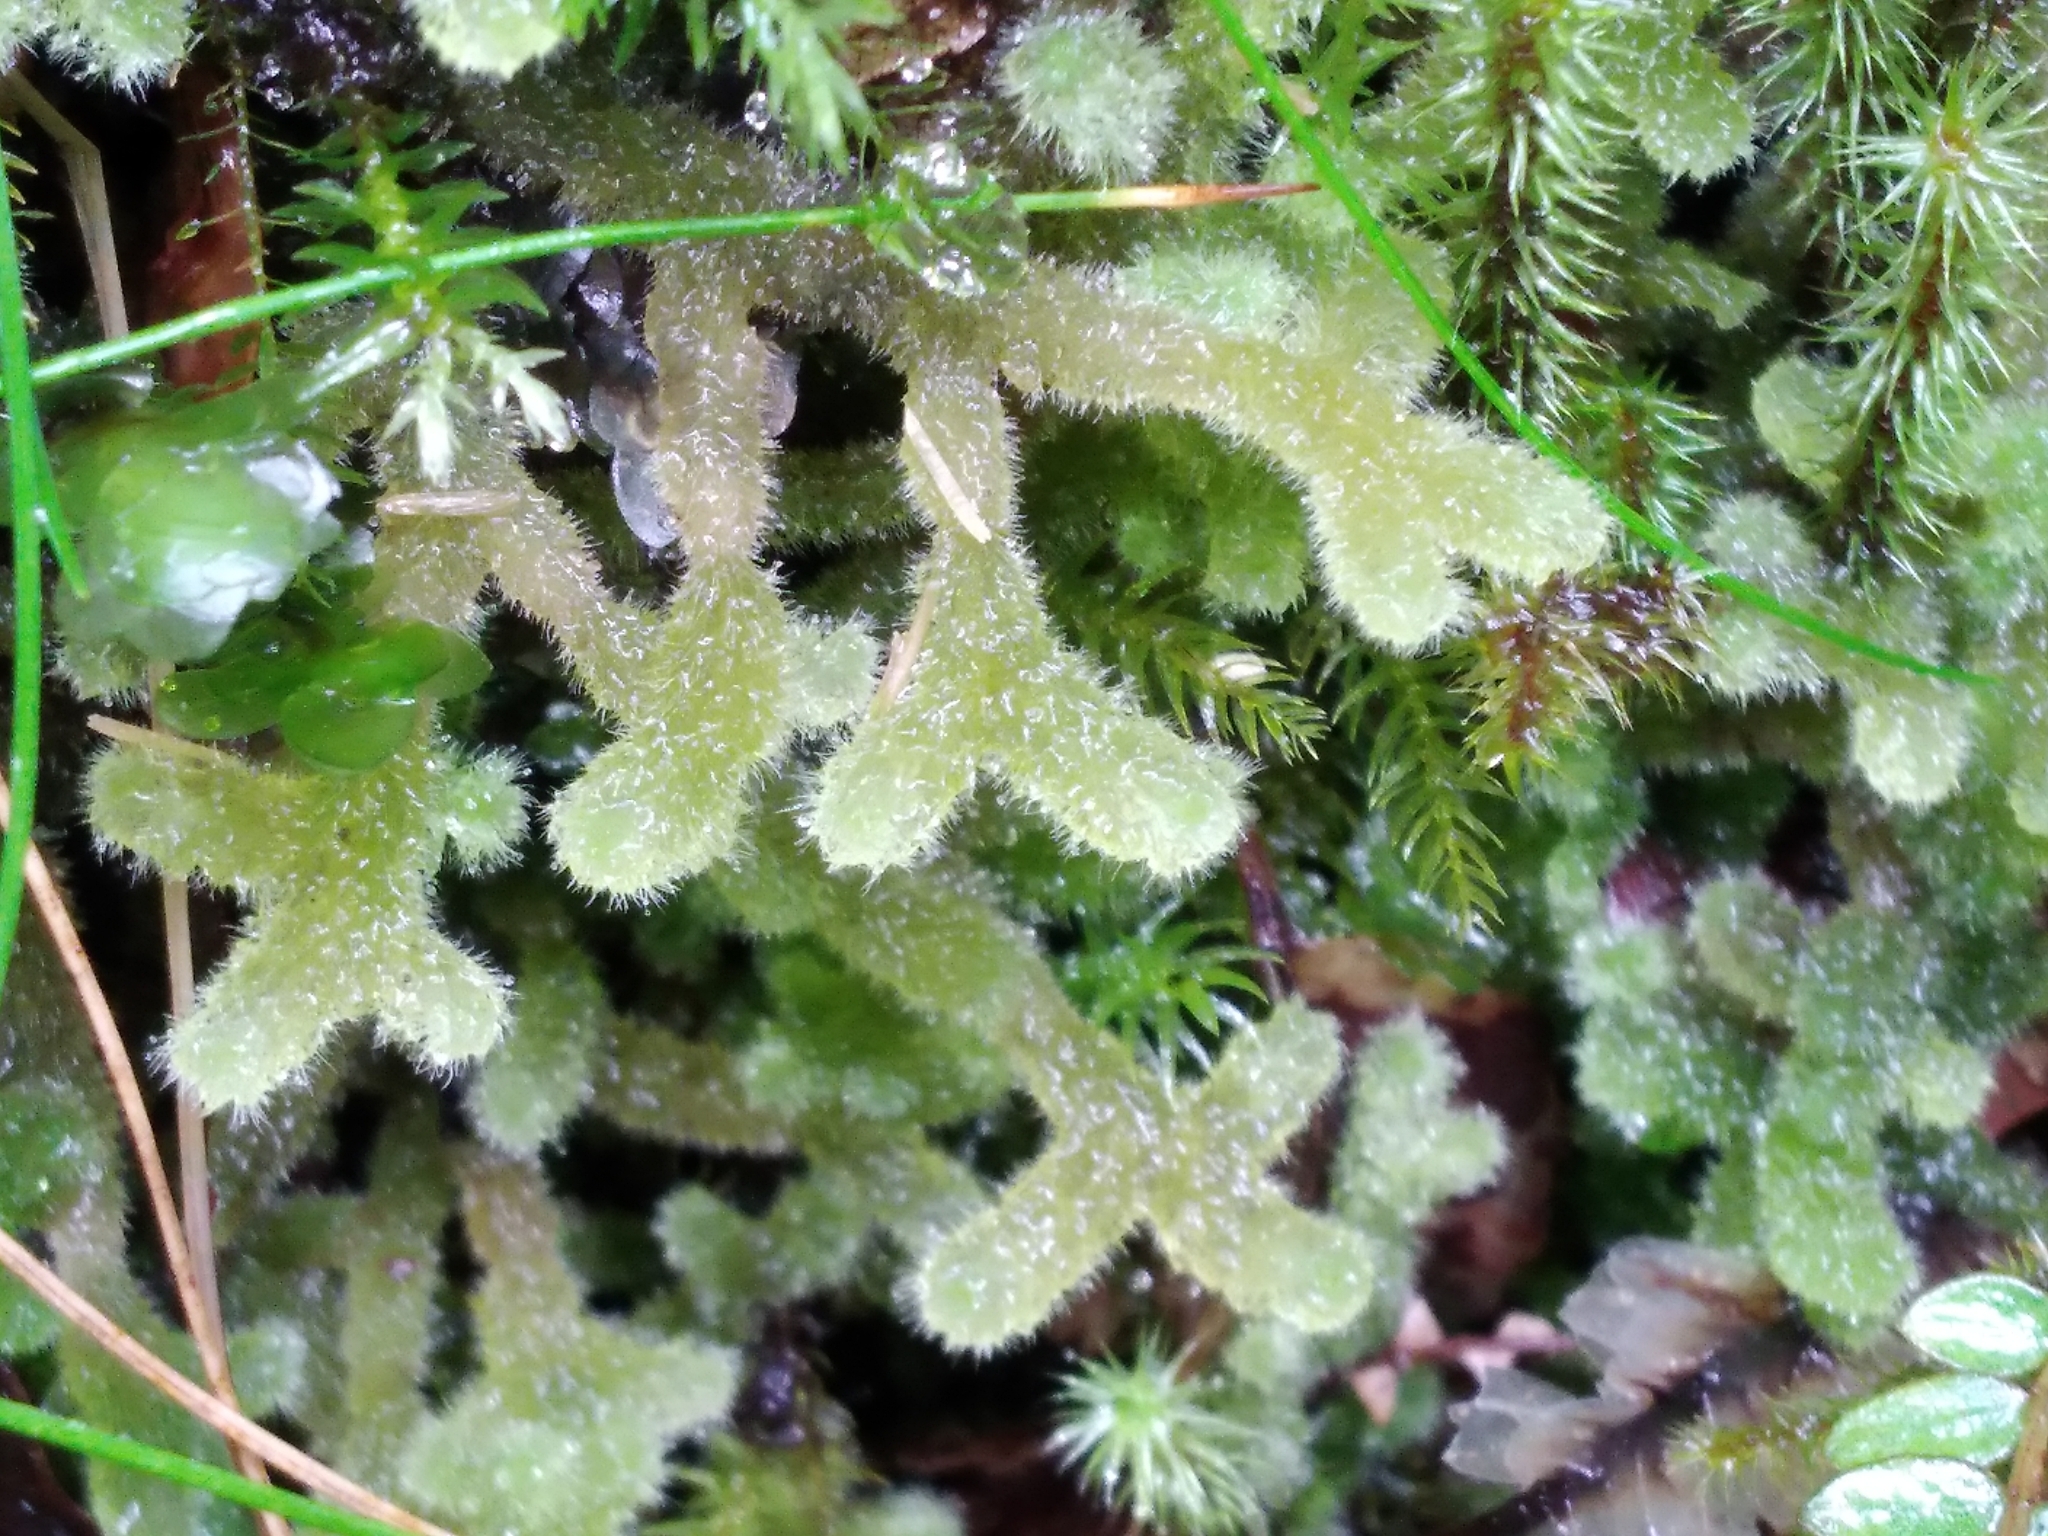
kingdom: Plantae
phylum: Marchantiophyta
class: Jungermanniopsida
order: Jungermanniales
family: Trichocoleaceae
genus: Leiomitra
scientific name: Leiomitra lanata
